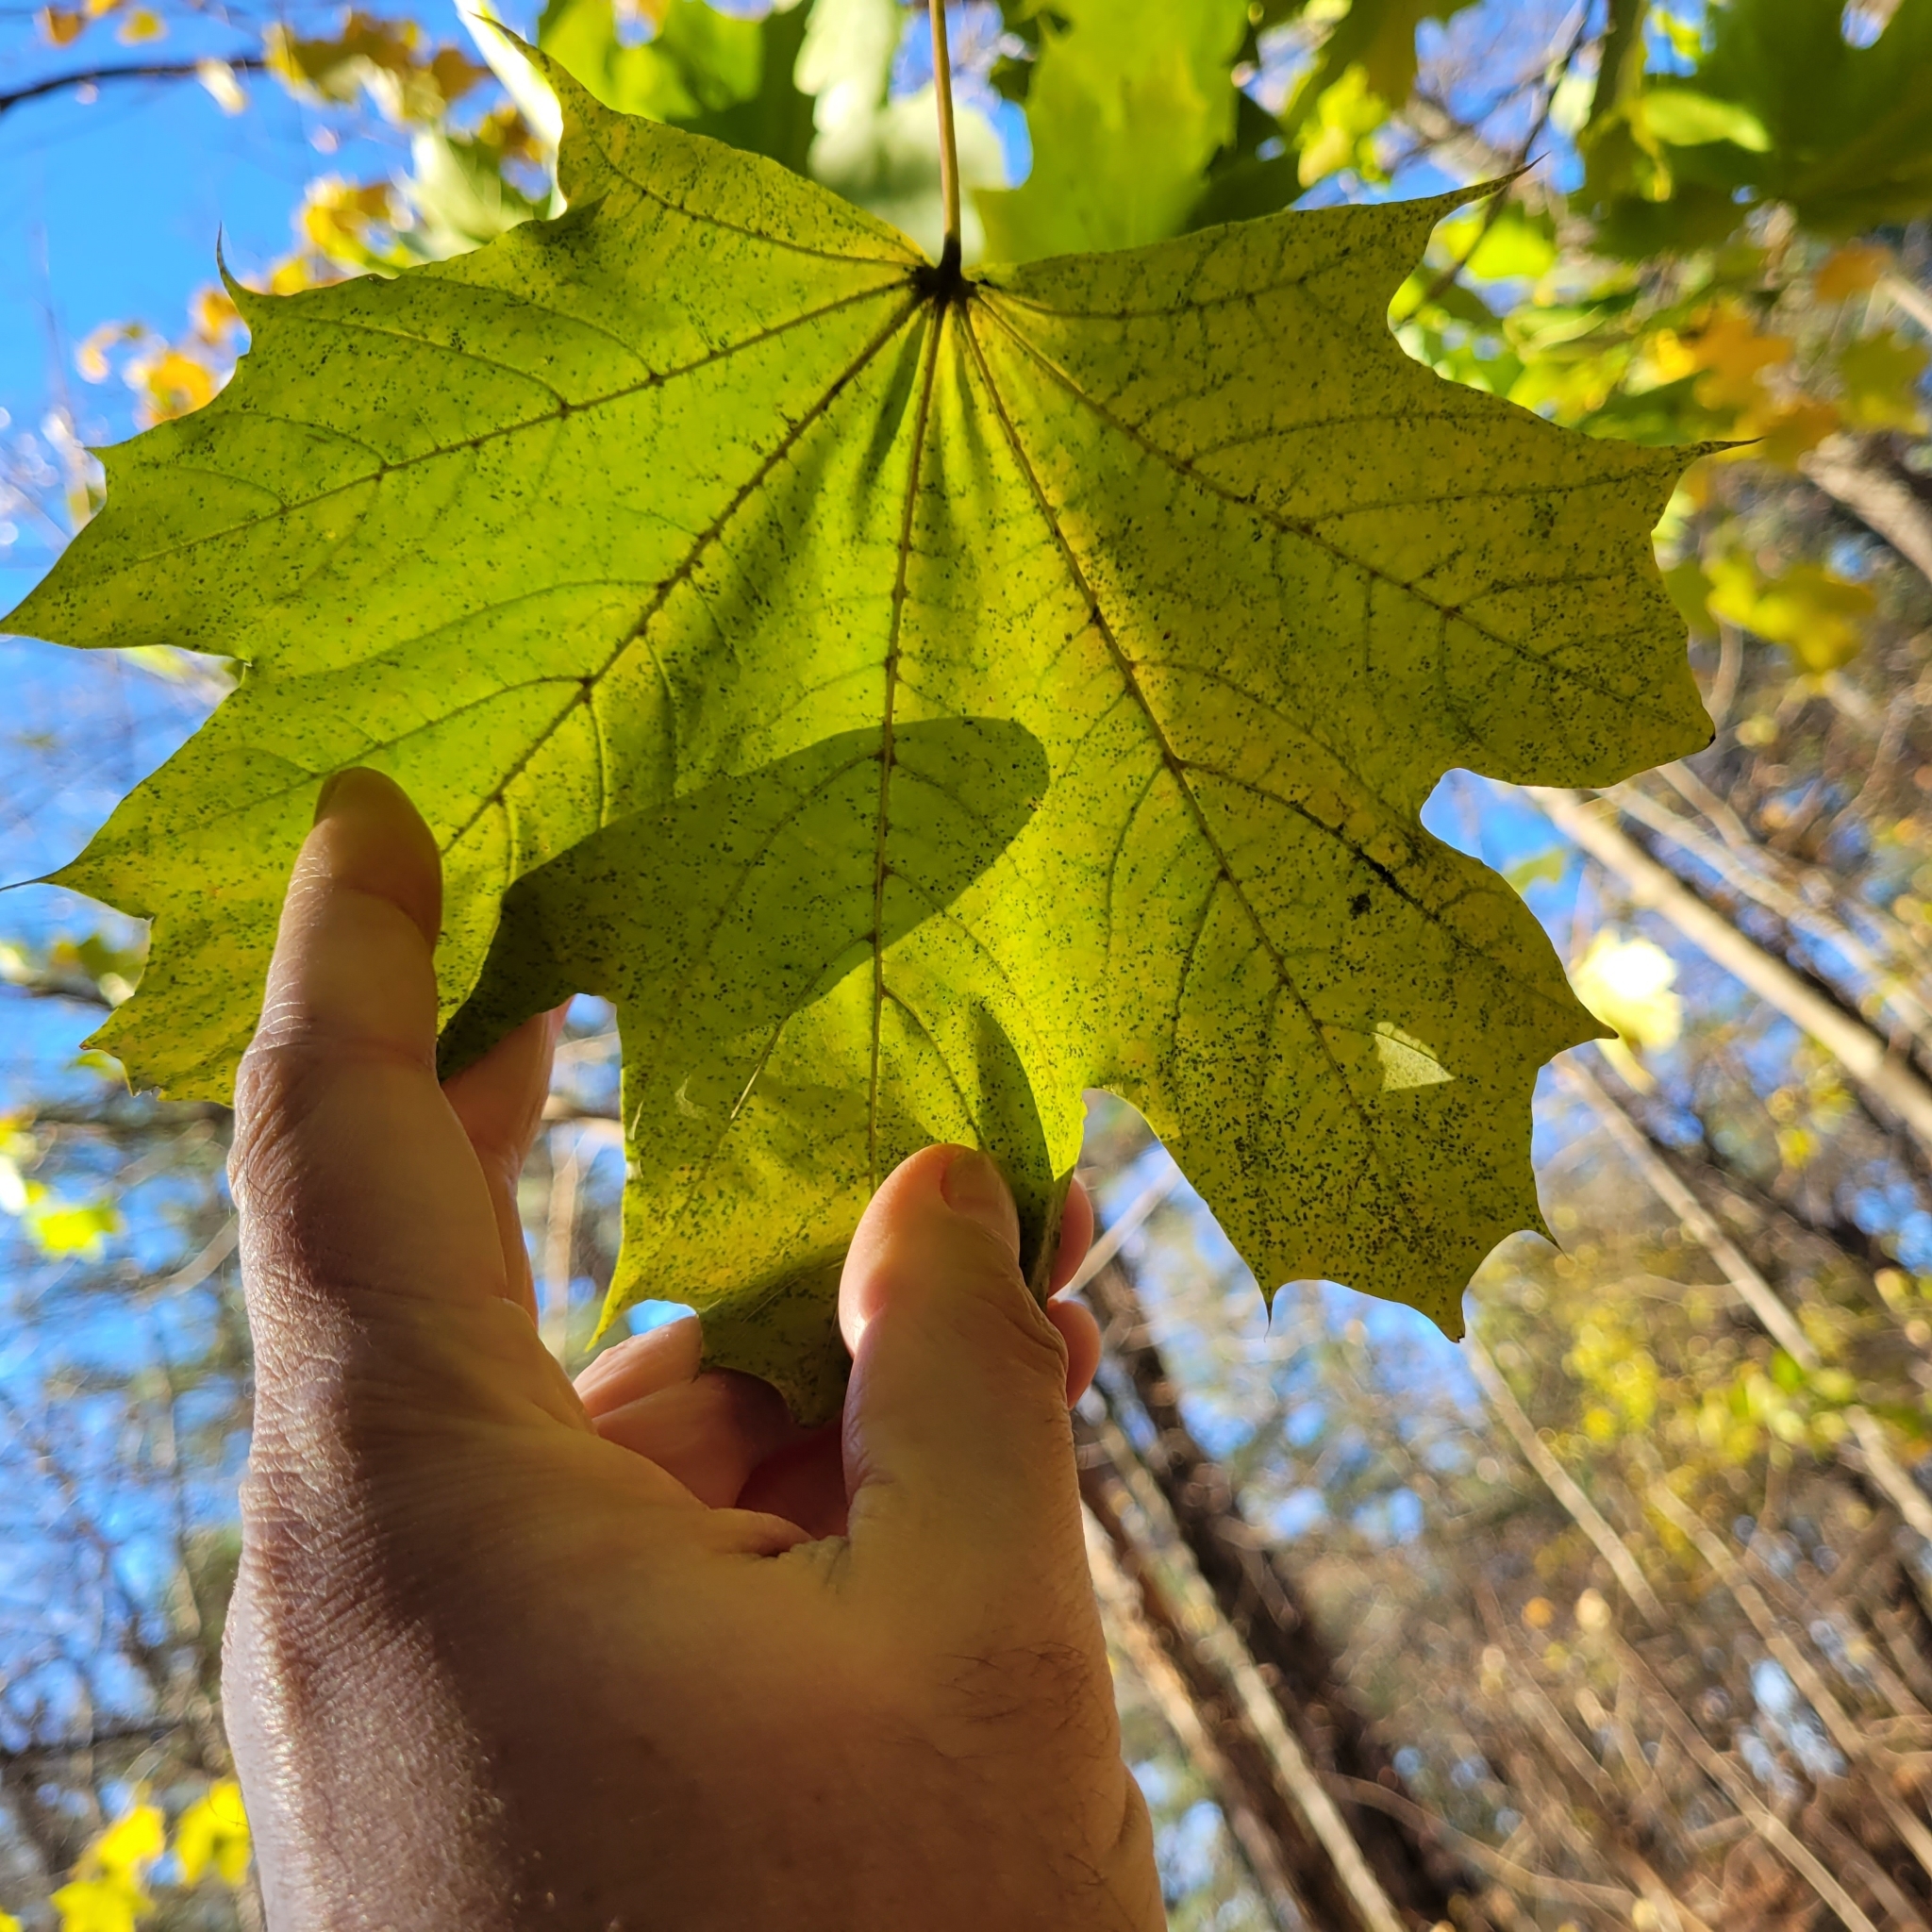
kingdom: Plantae
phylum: Tracheophyta
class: Magnoliopsida
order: Sapindales
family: Sapindaceae
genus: Acer
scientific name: Acer platanoides
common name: Norway maple
